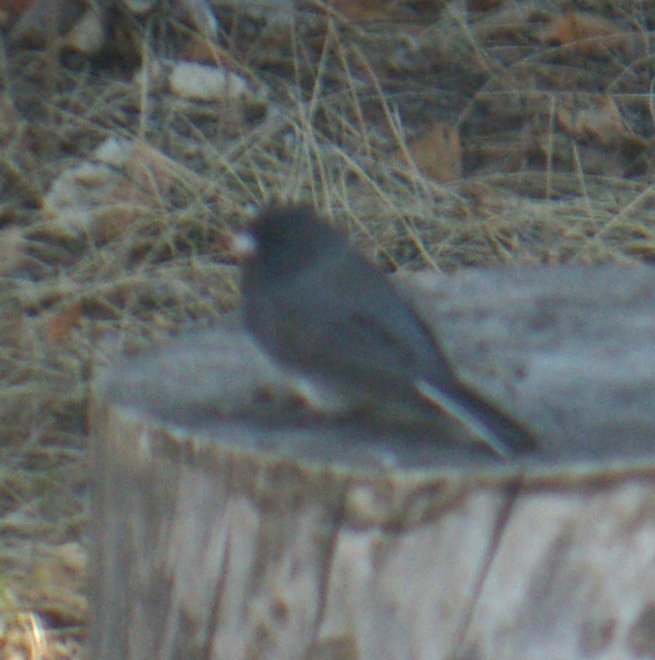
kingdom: Animalia
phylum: Chordata
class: Aves
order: Passeriformes
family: Passerellidae
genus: Junco
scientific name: Junco hyemalis
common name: Dark-eyed junco
